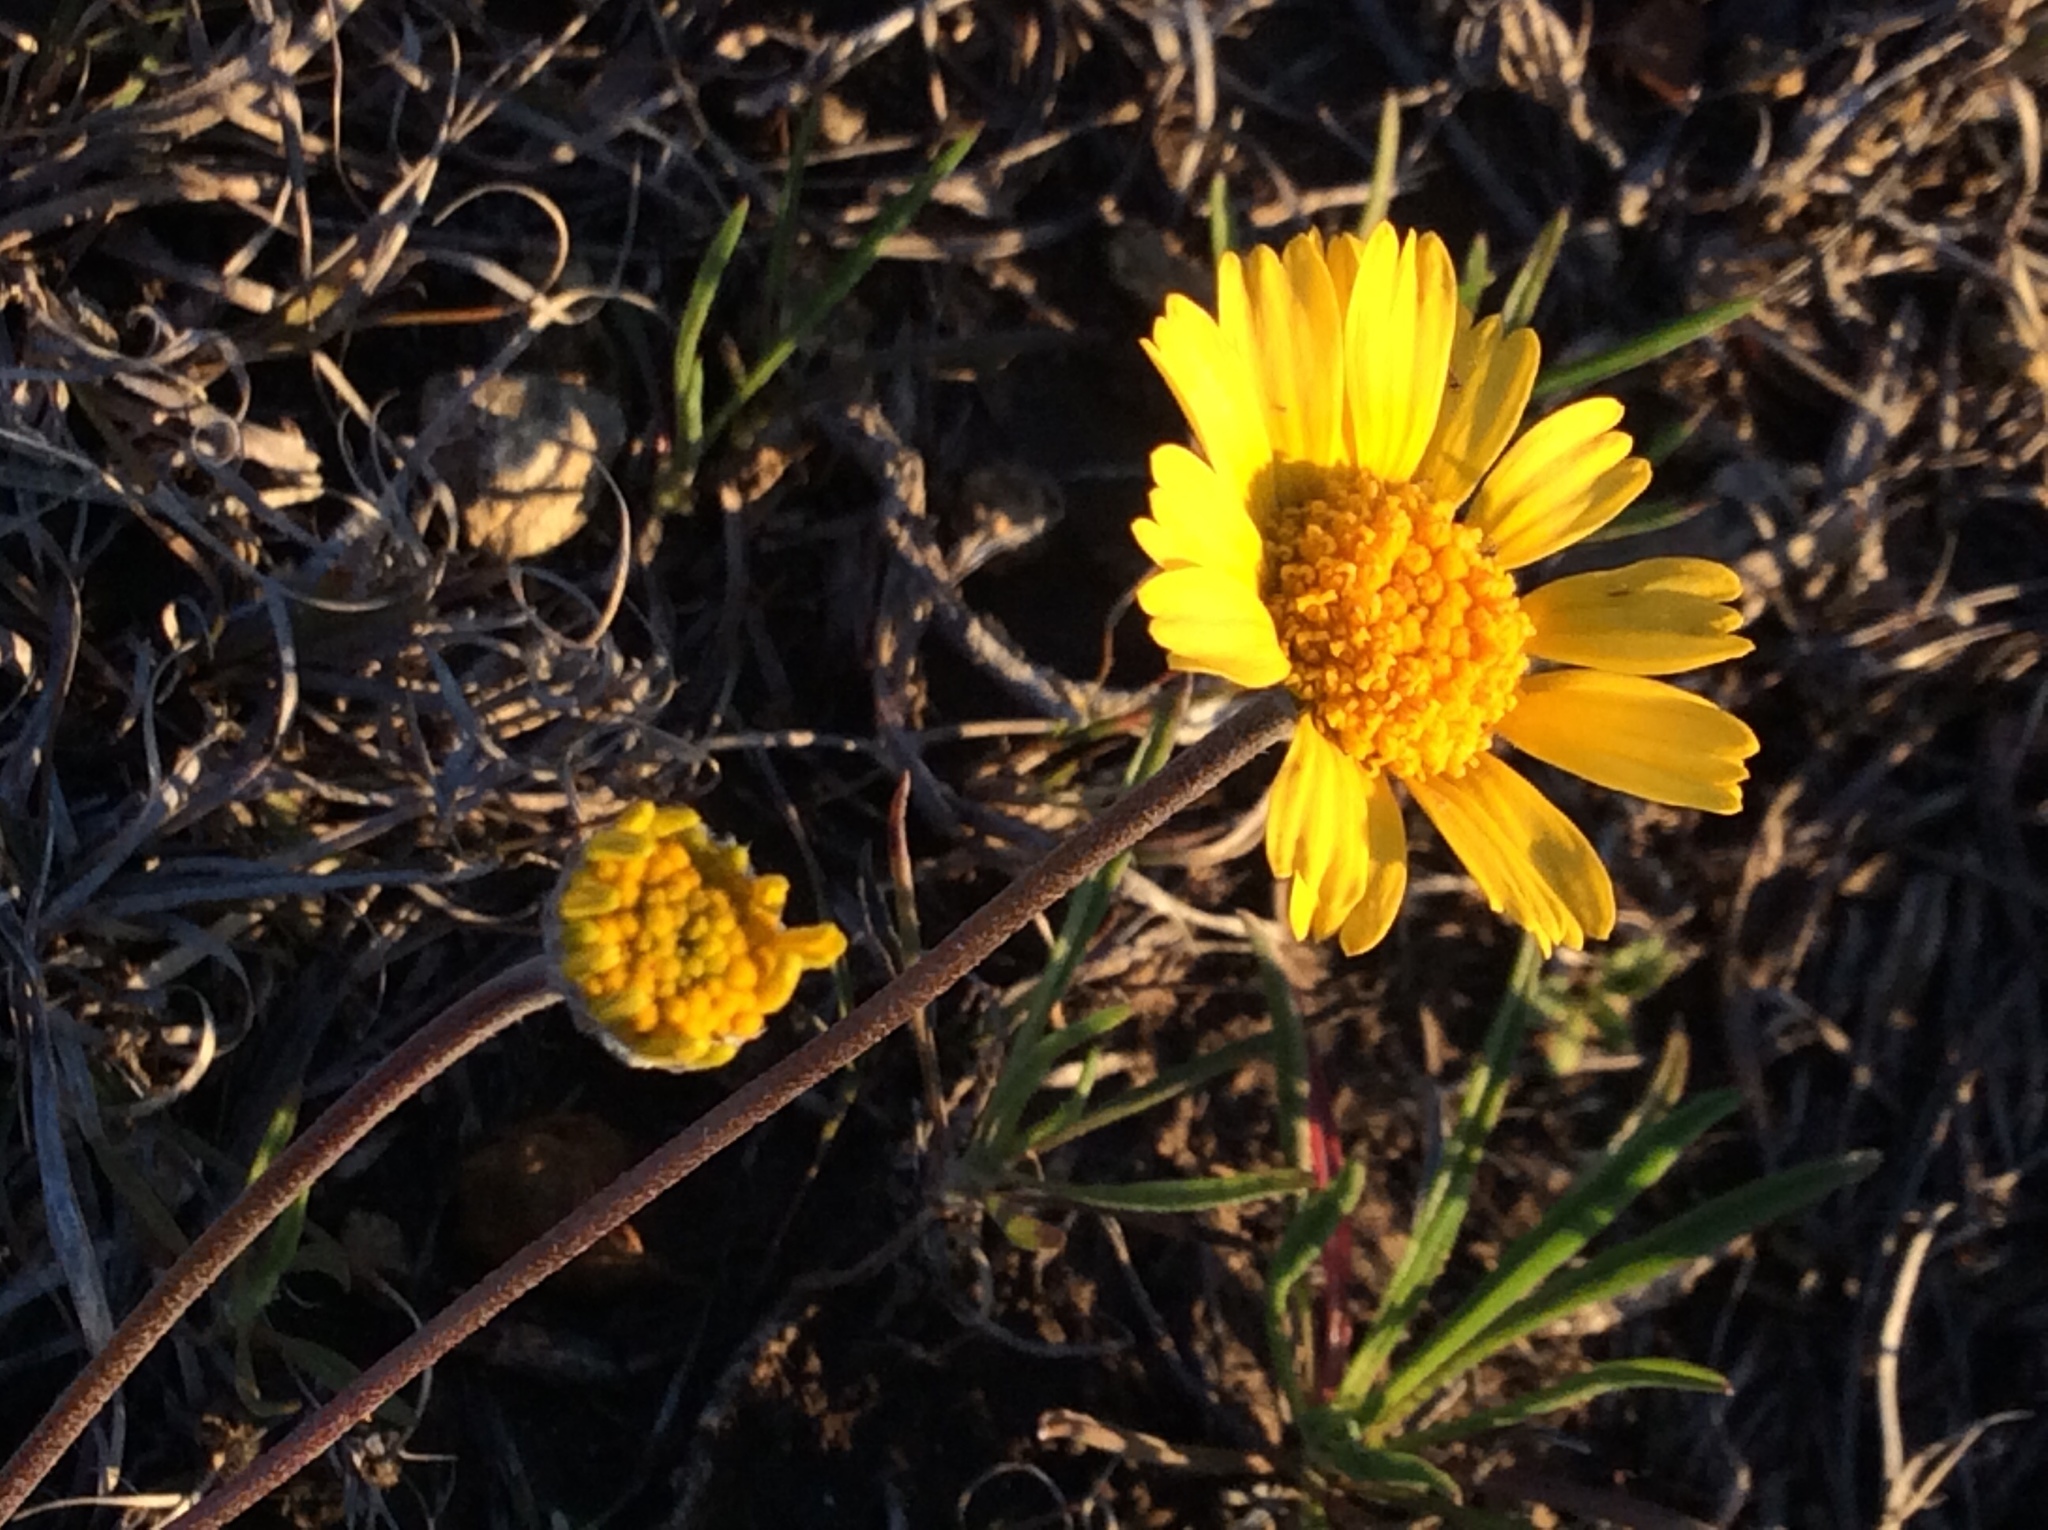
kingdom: Plantae
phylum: Tracheophyta
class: Magnoliopsida
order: Asterales
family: Asteraceae
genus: Tetraneuris
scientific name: Tetraneuris scaposa
